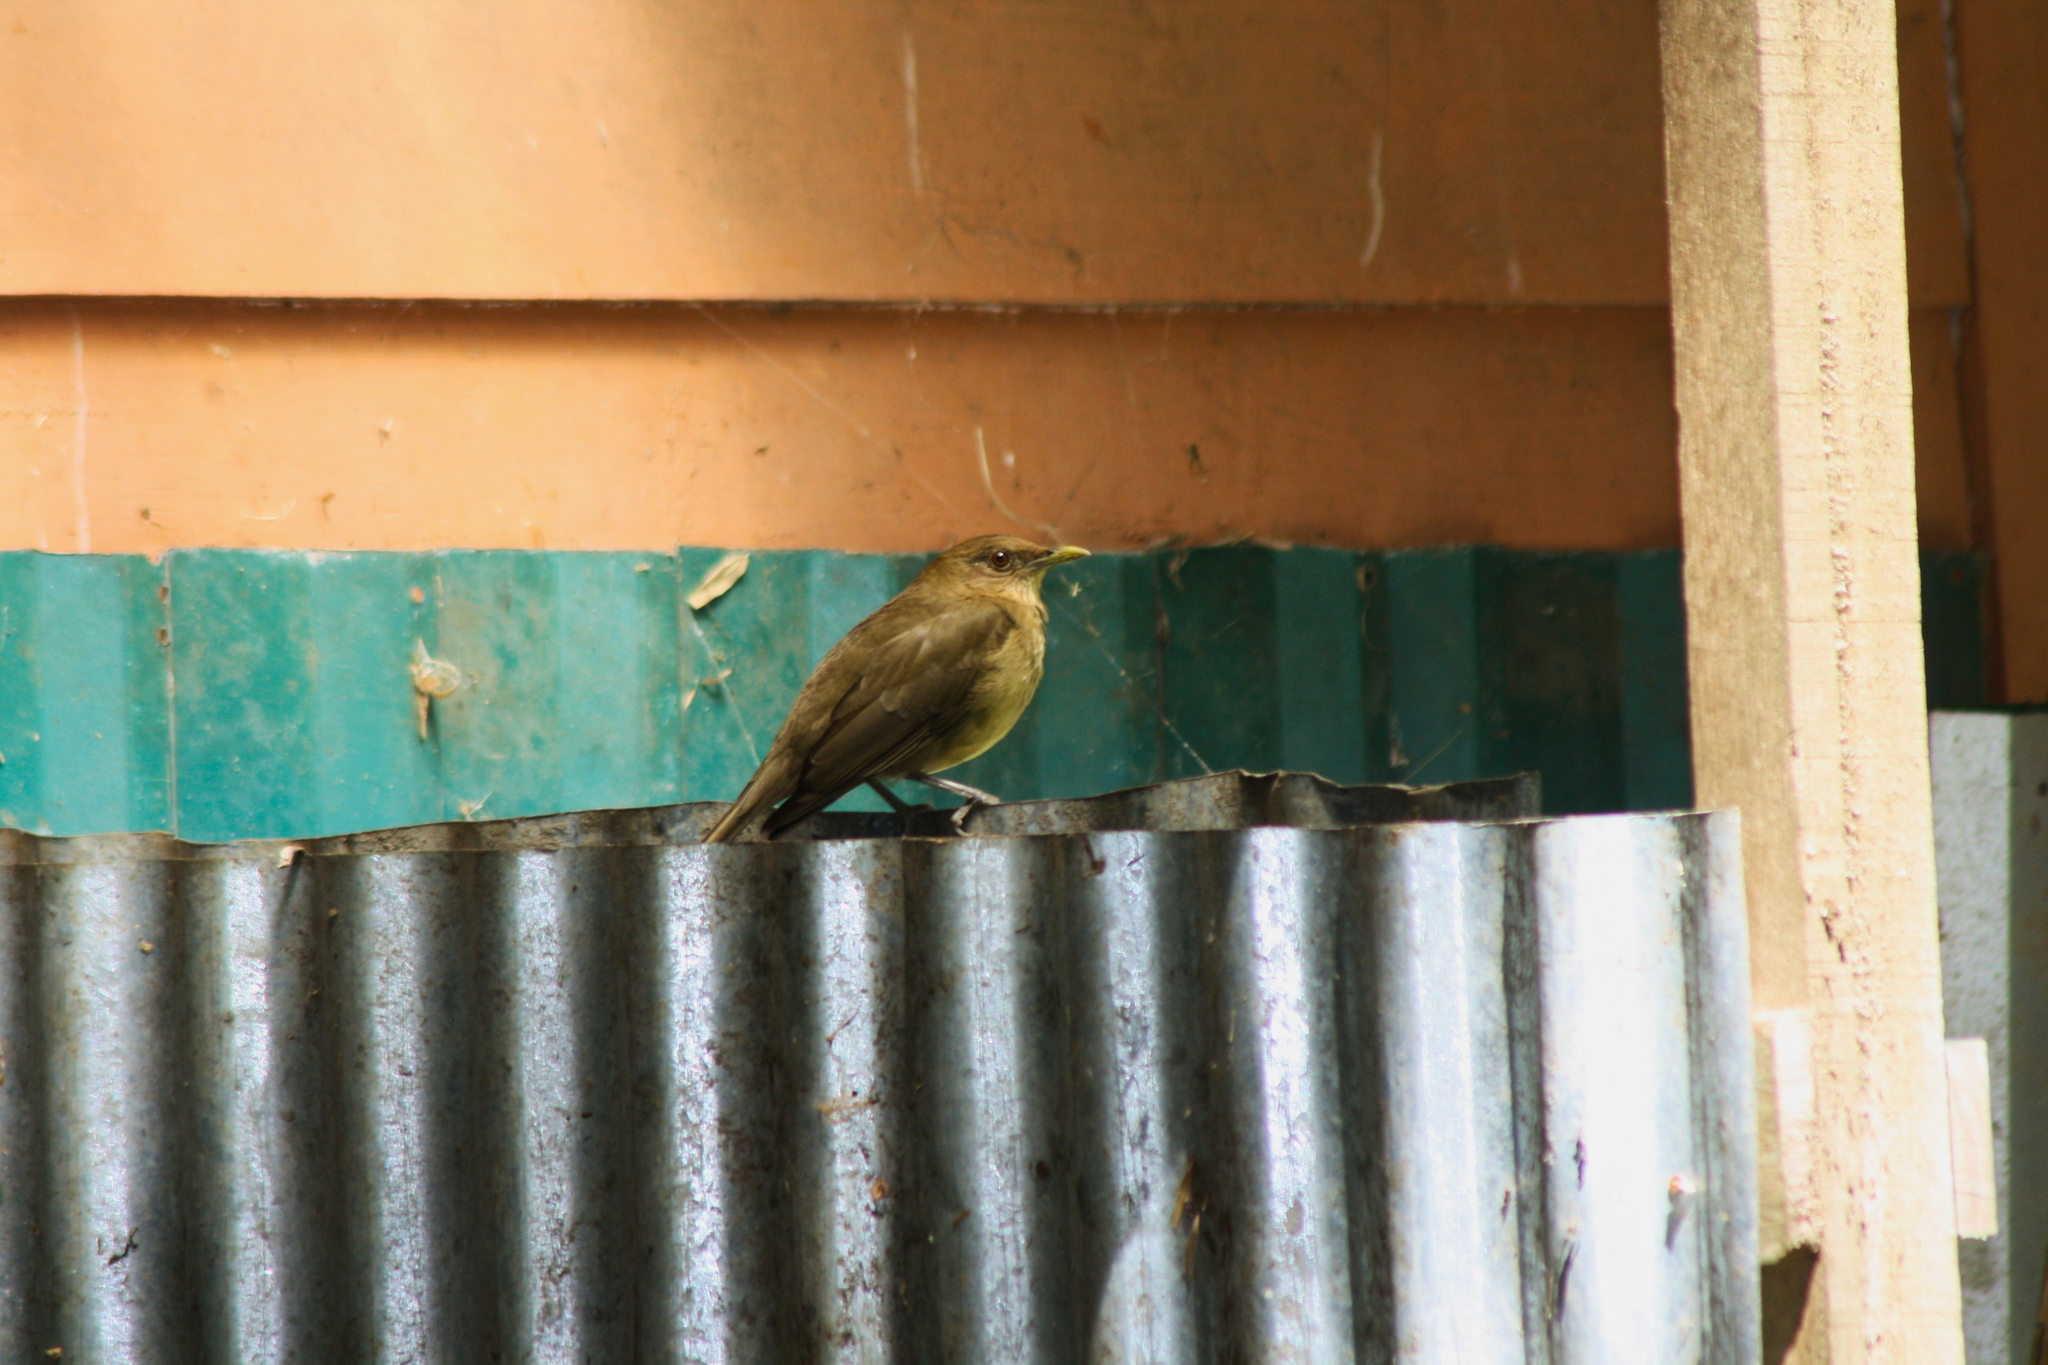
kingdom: Animalia
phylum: Chordata
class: Aves
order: Passeriformes
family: Turdidae
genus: Turdus
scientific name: Turdus grayi
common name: Clay-colored thrush
